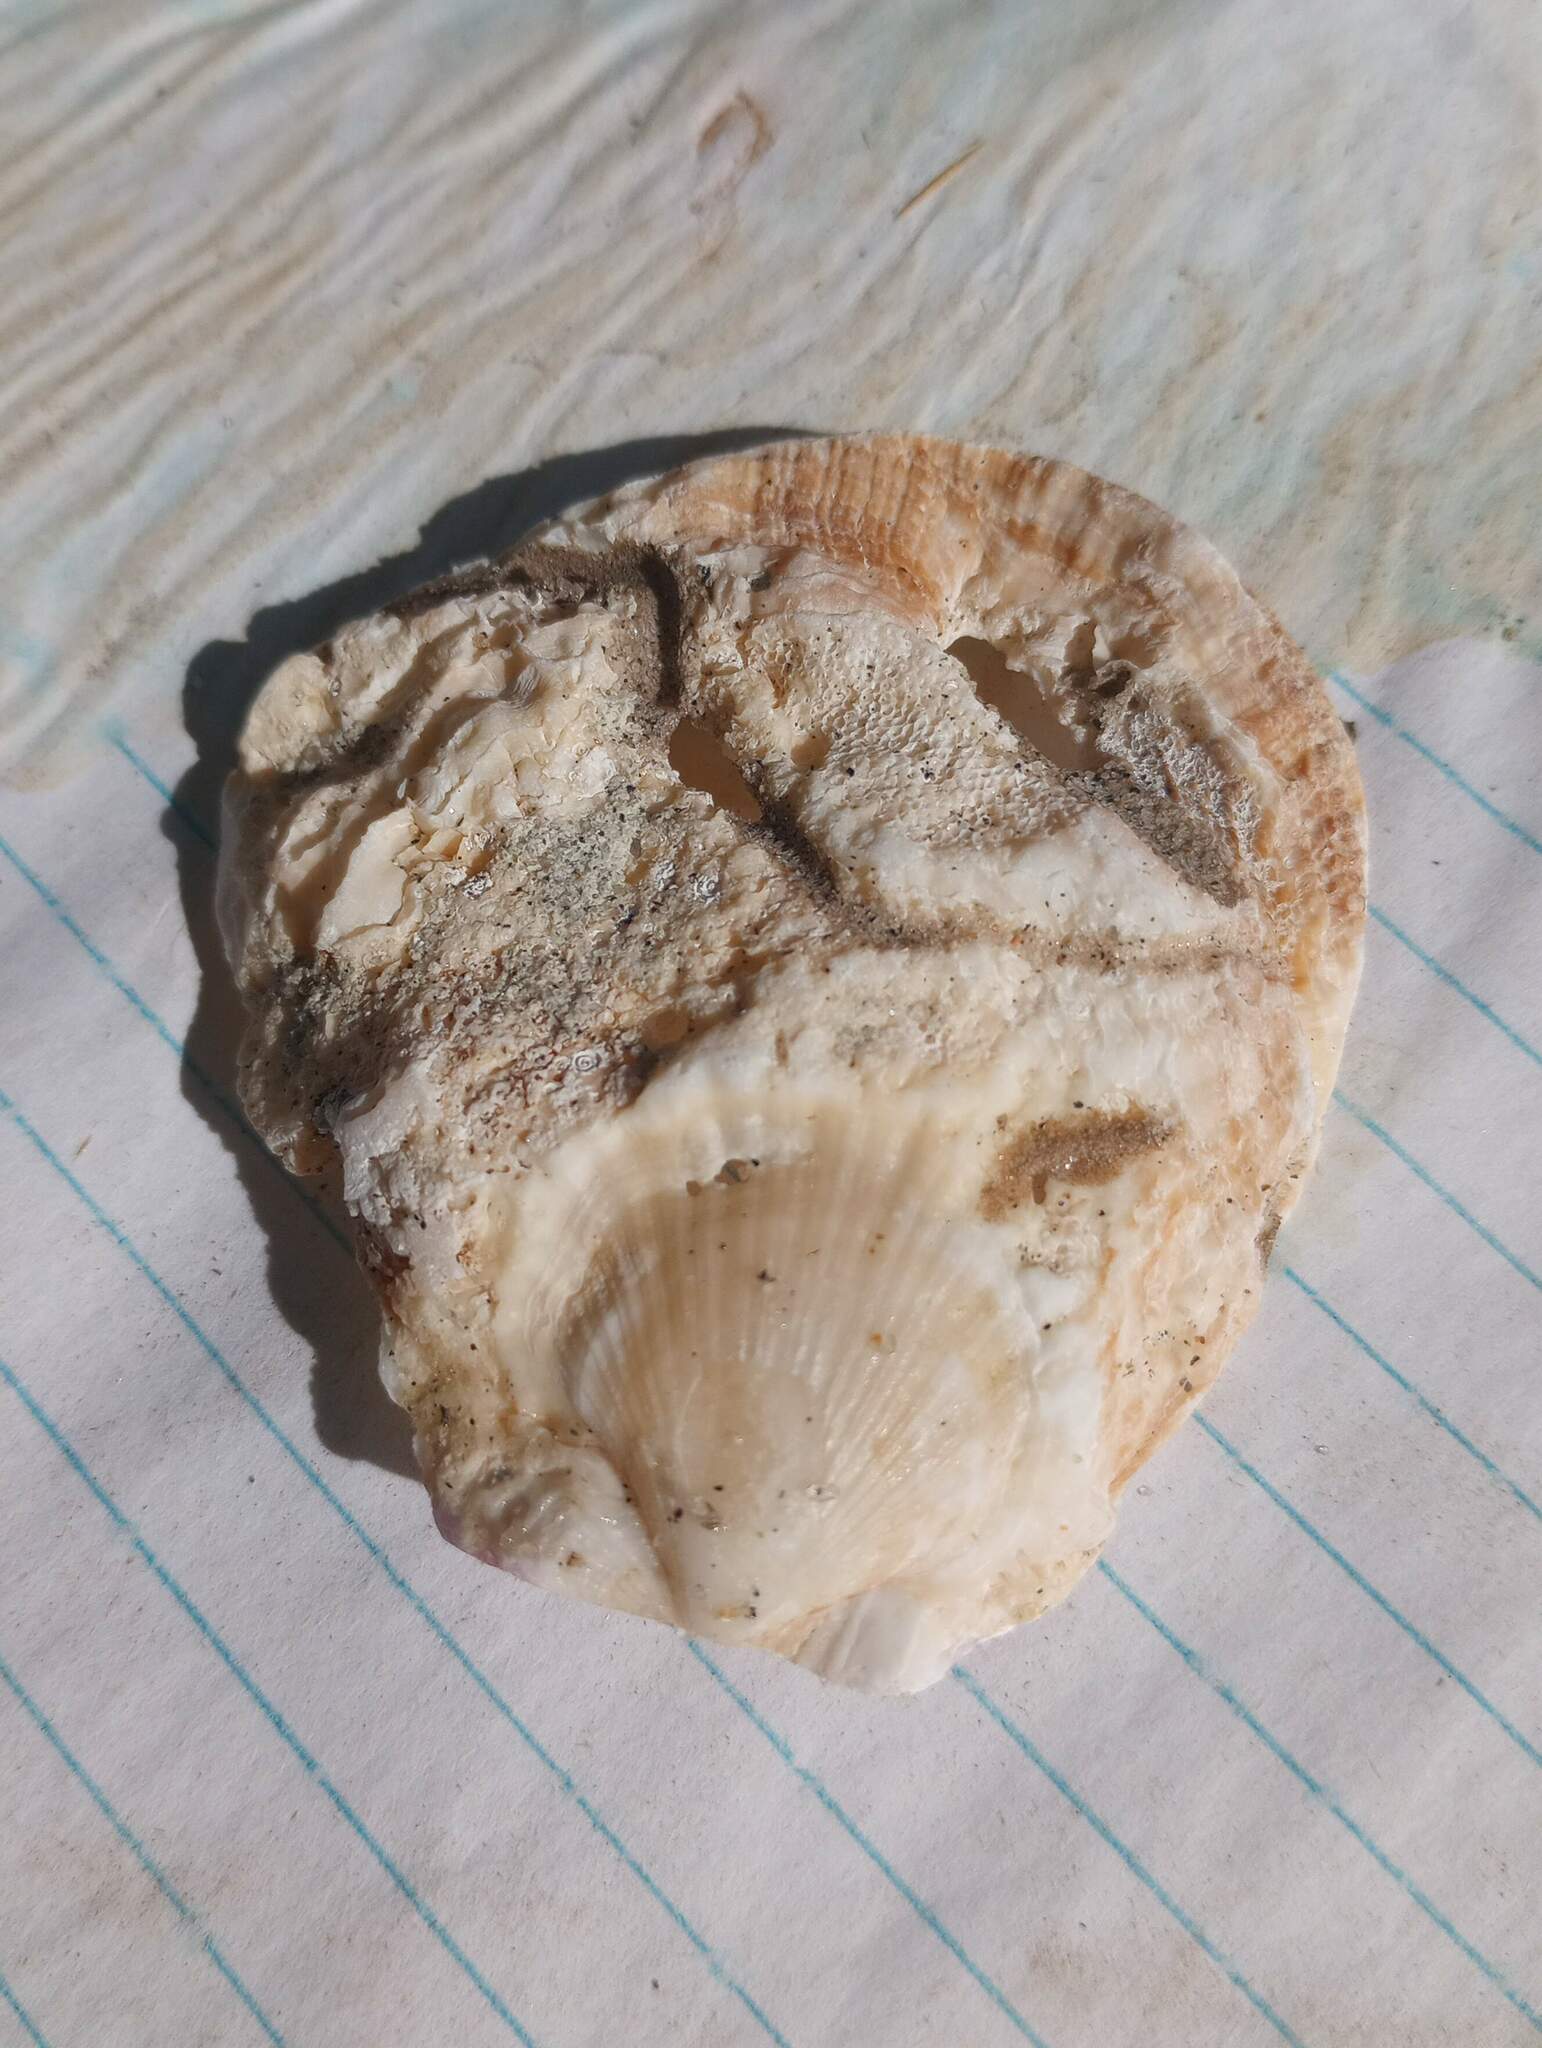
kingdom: Animalia
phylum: Mollusca
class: Bivalvia
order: Pectinida
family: Pectinidae
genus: Crassadoma
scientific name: Crassadoma gigantea
